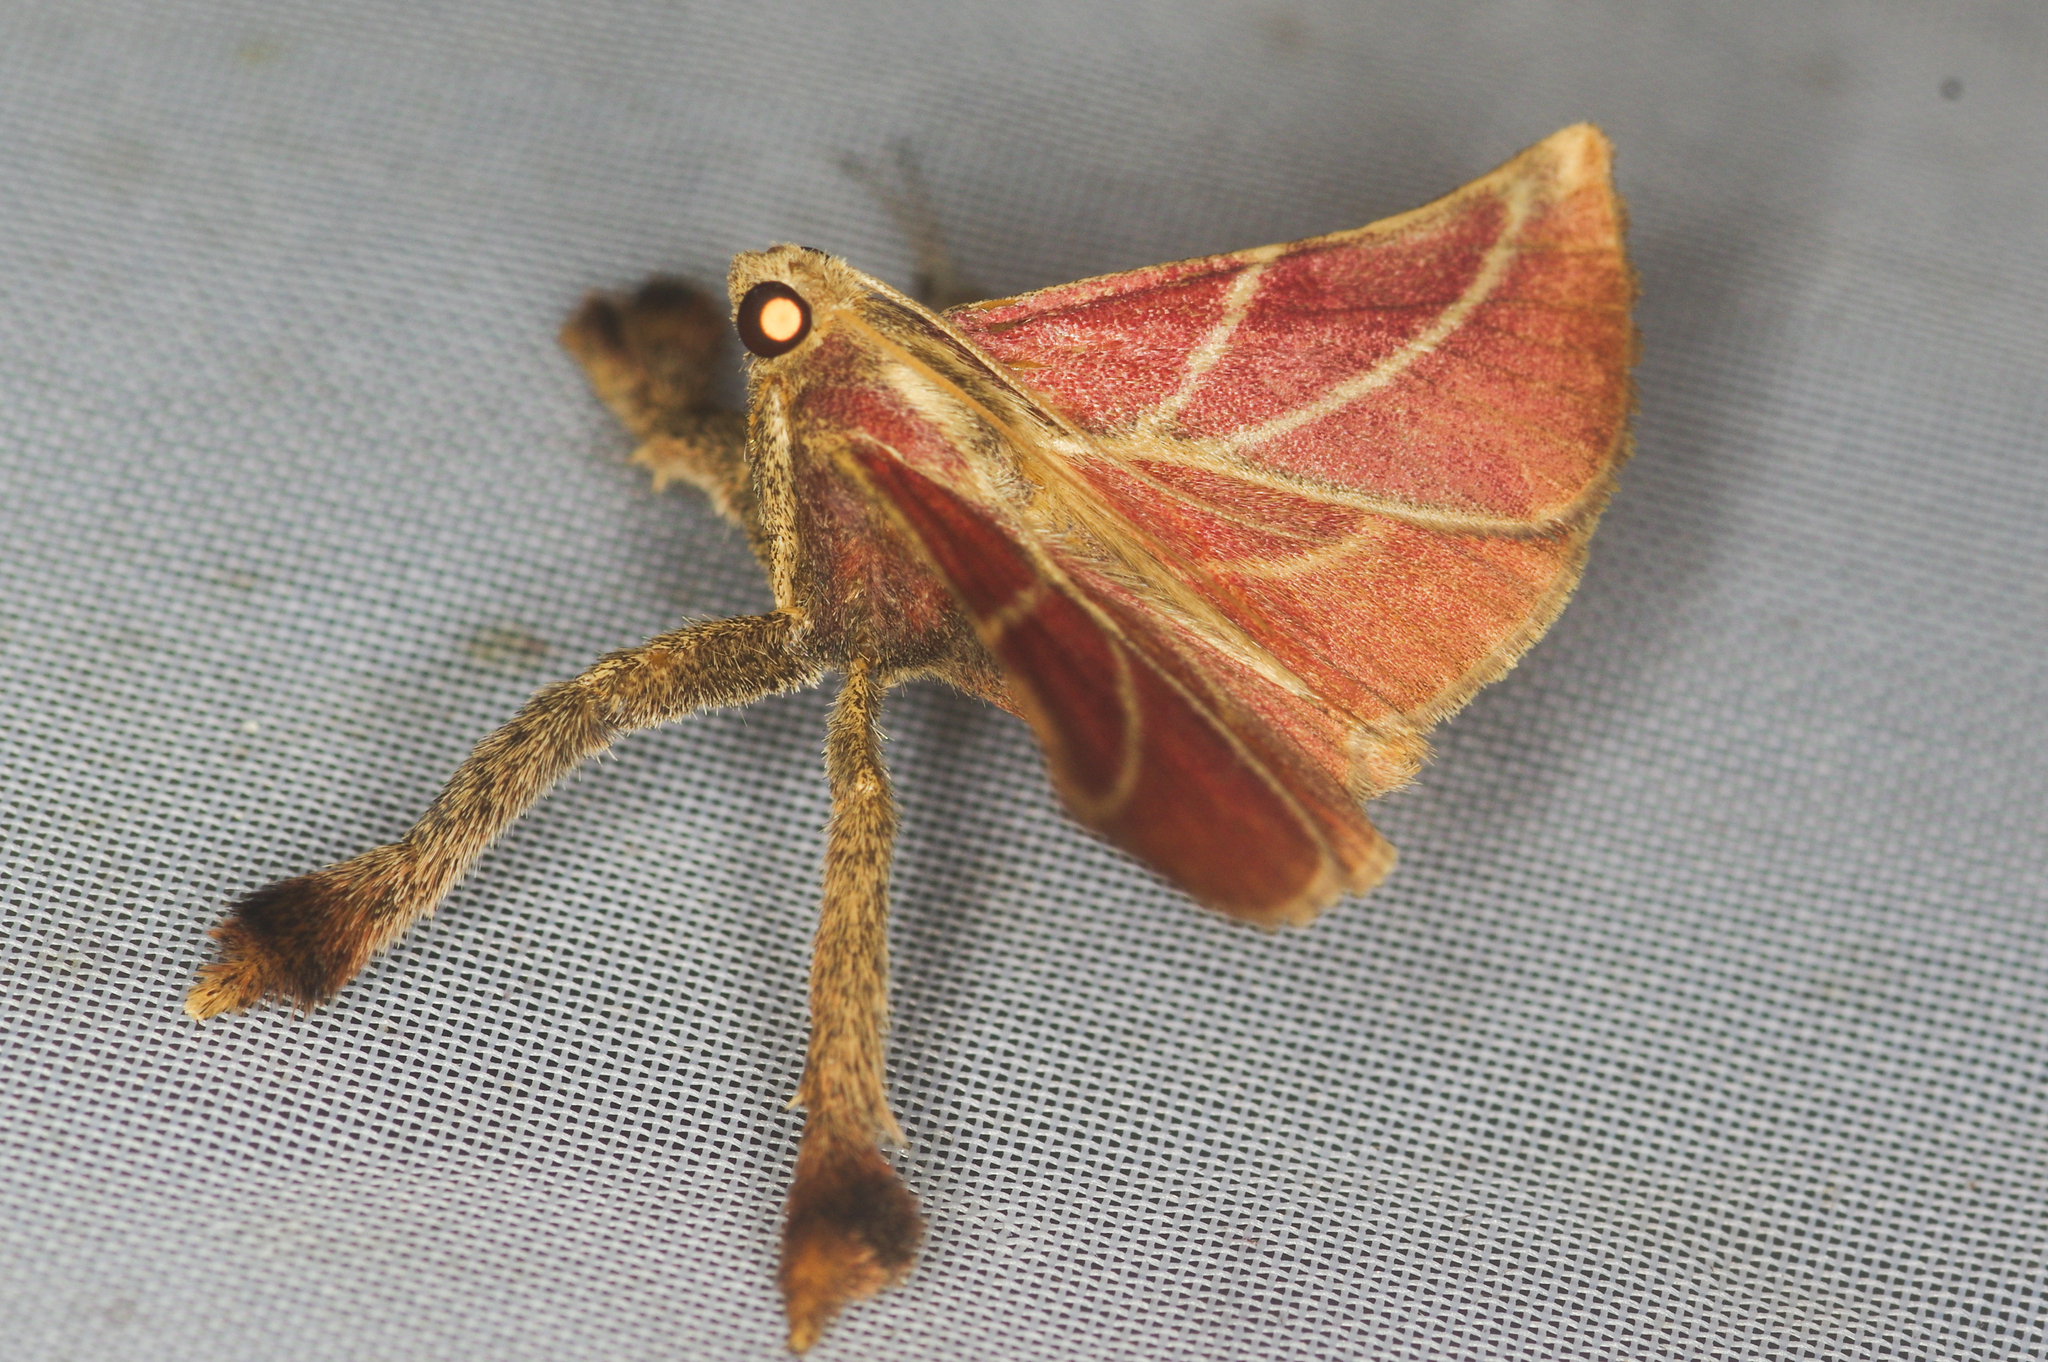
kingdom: Animalia
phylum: Arthropoda
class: Insecta
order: Lepidoptera
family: Pyralidae
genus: Pachypodistes
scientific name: Pachypodistes goeldii
